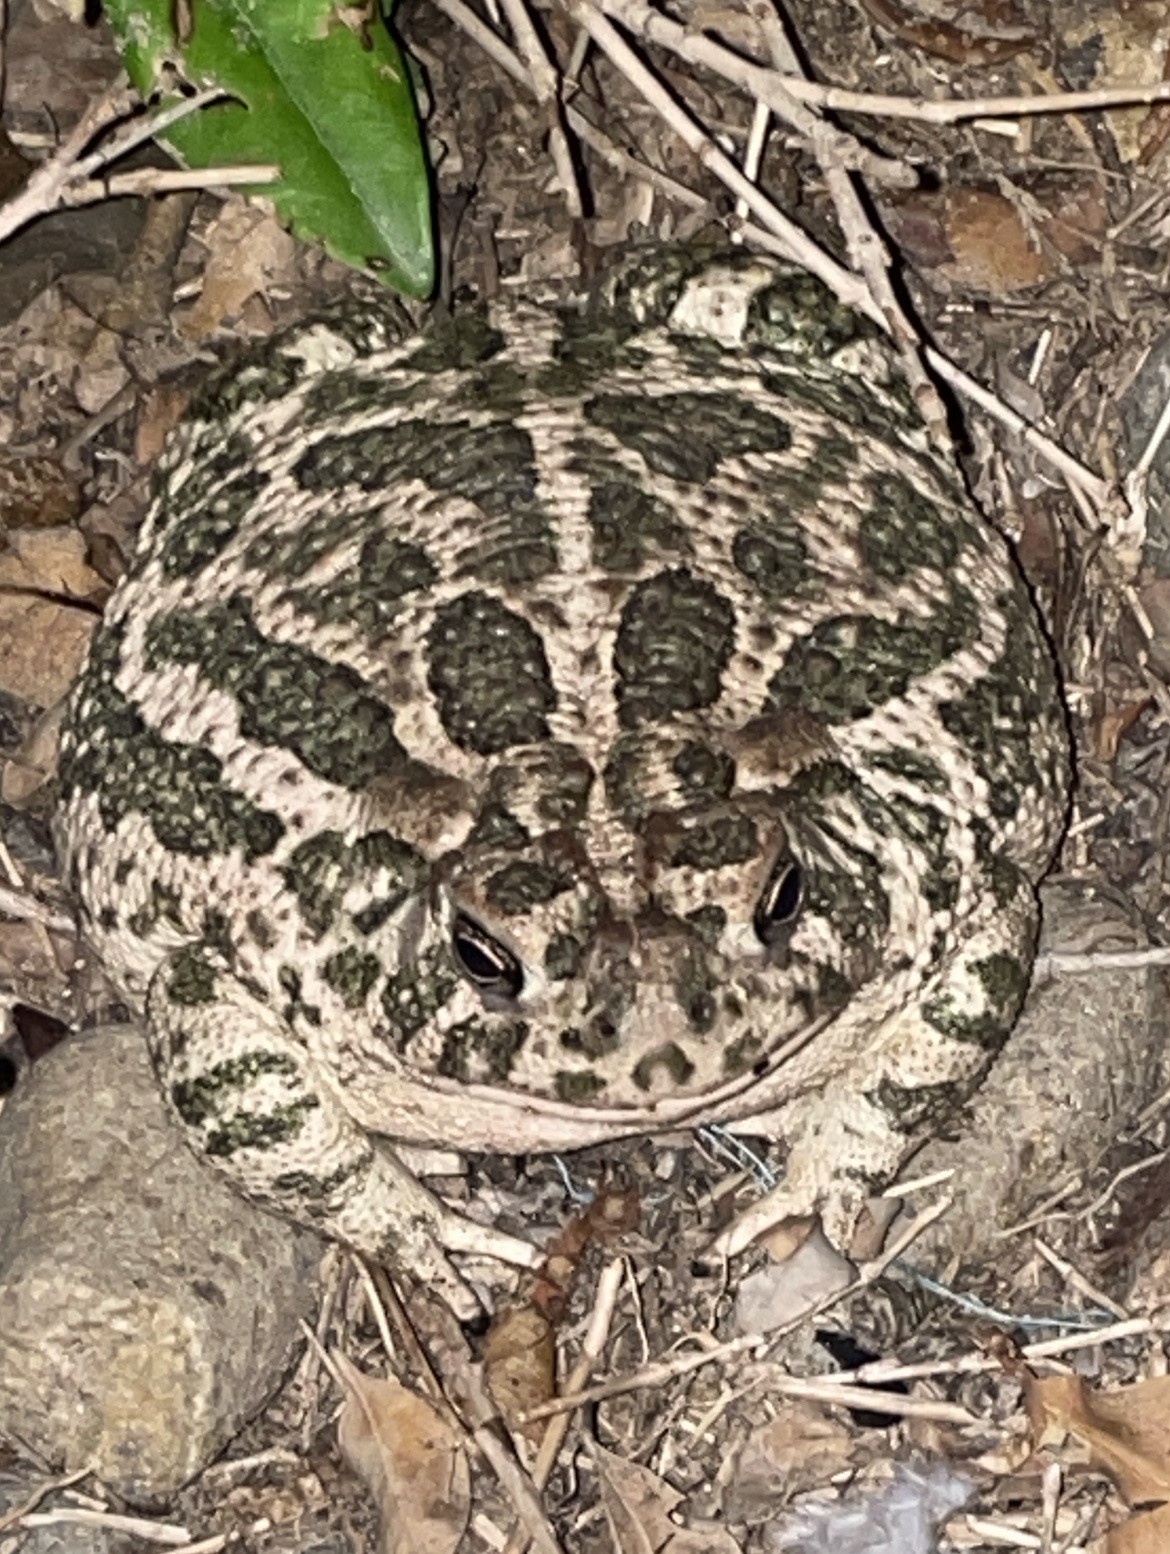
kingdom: Animalia
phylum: Chordata
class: Amphibia
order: Anura
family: Bufonidae
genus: Anaxyrus
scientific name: Anaxyrus cognatus
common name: Great plains toad
